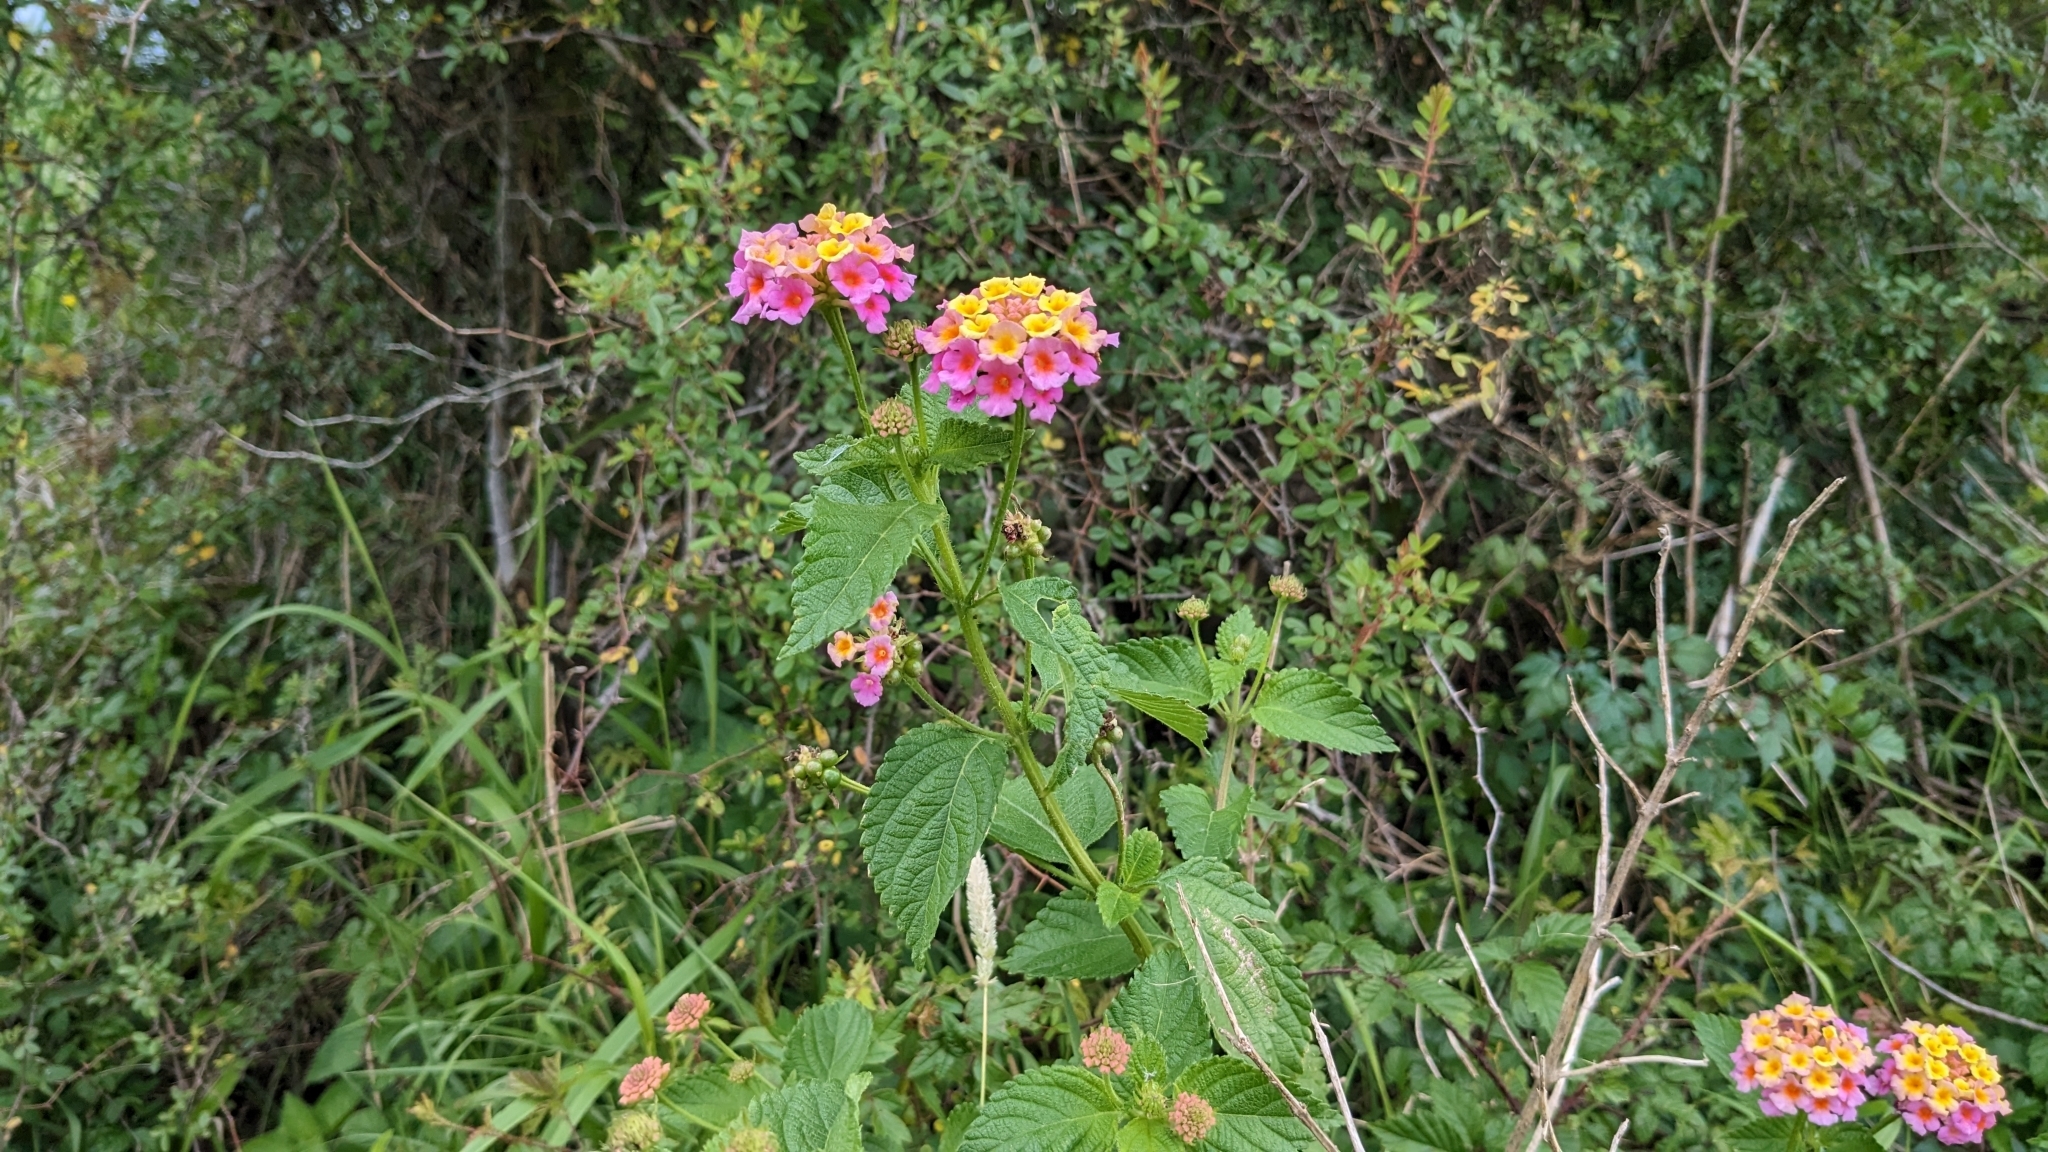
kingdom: Plantae
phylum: Tracheophyta
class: Magnoliopsida
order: Lamiales
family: Verbenaceae
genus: Lantana
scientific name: Lantana strigocamara
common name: Lantana
